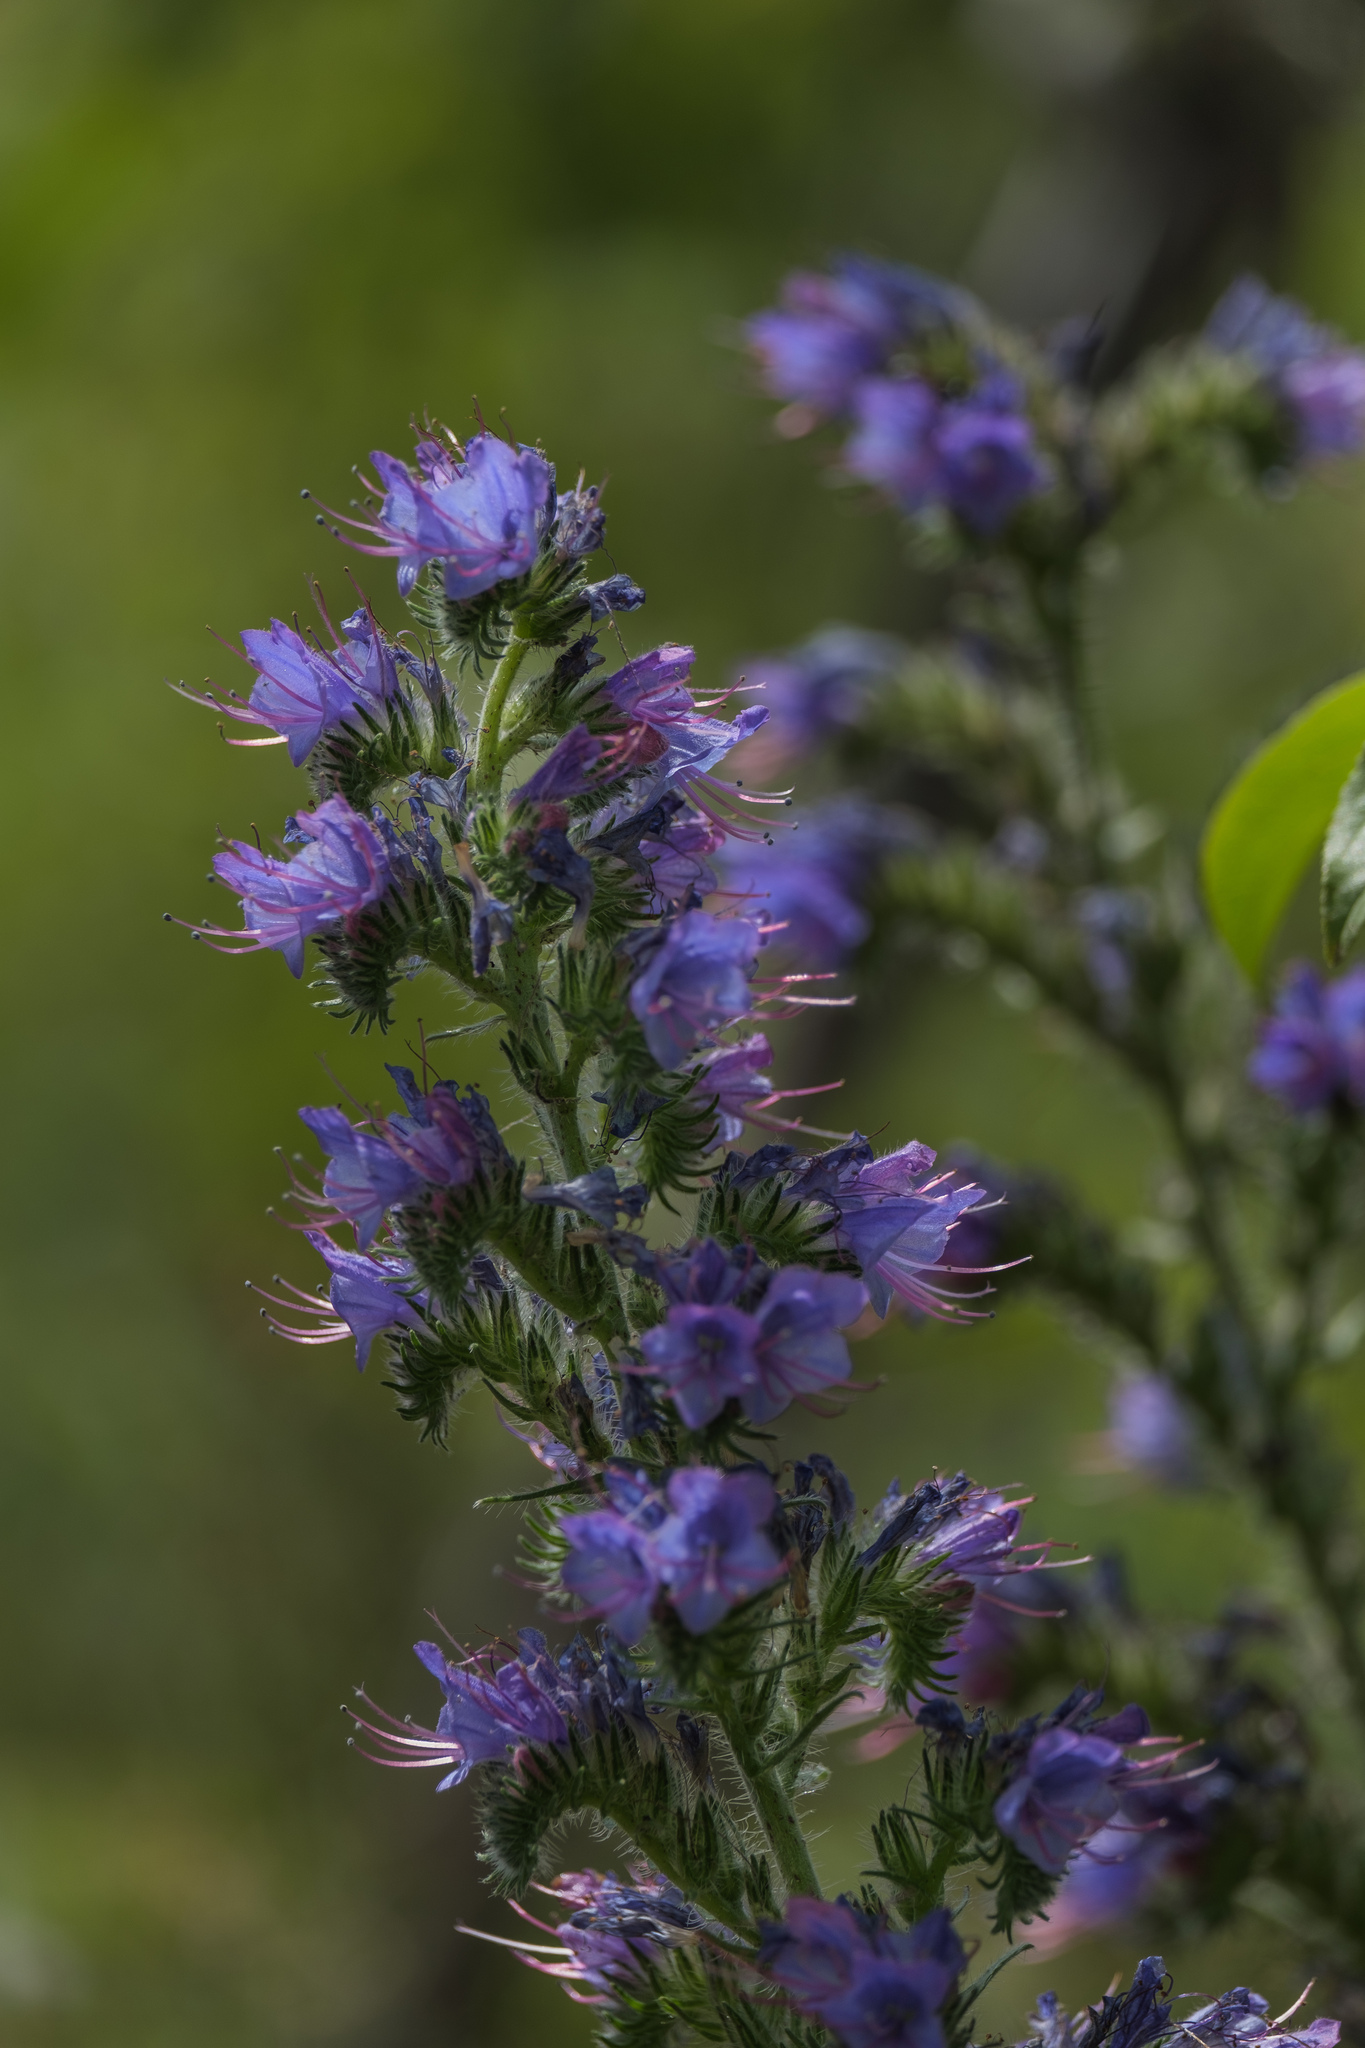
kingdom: Plantae
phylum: Tracheophyta
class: Magnoliopsida
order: Boraginales
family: Boraginaceae
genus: Echium
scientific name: Echium vulgare
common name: Common viper's bugloss
